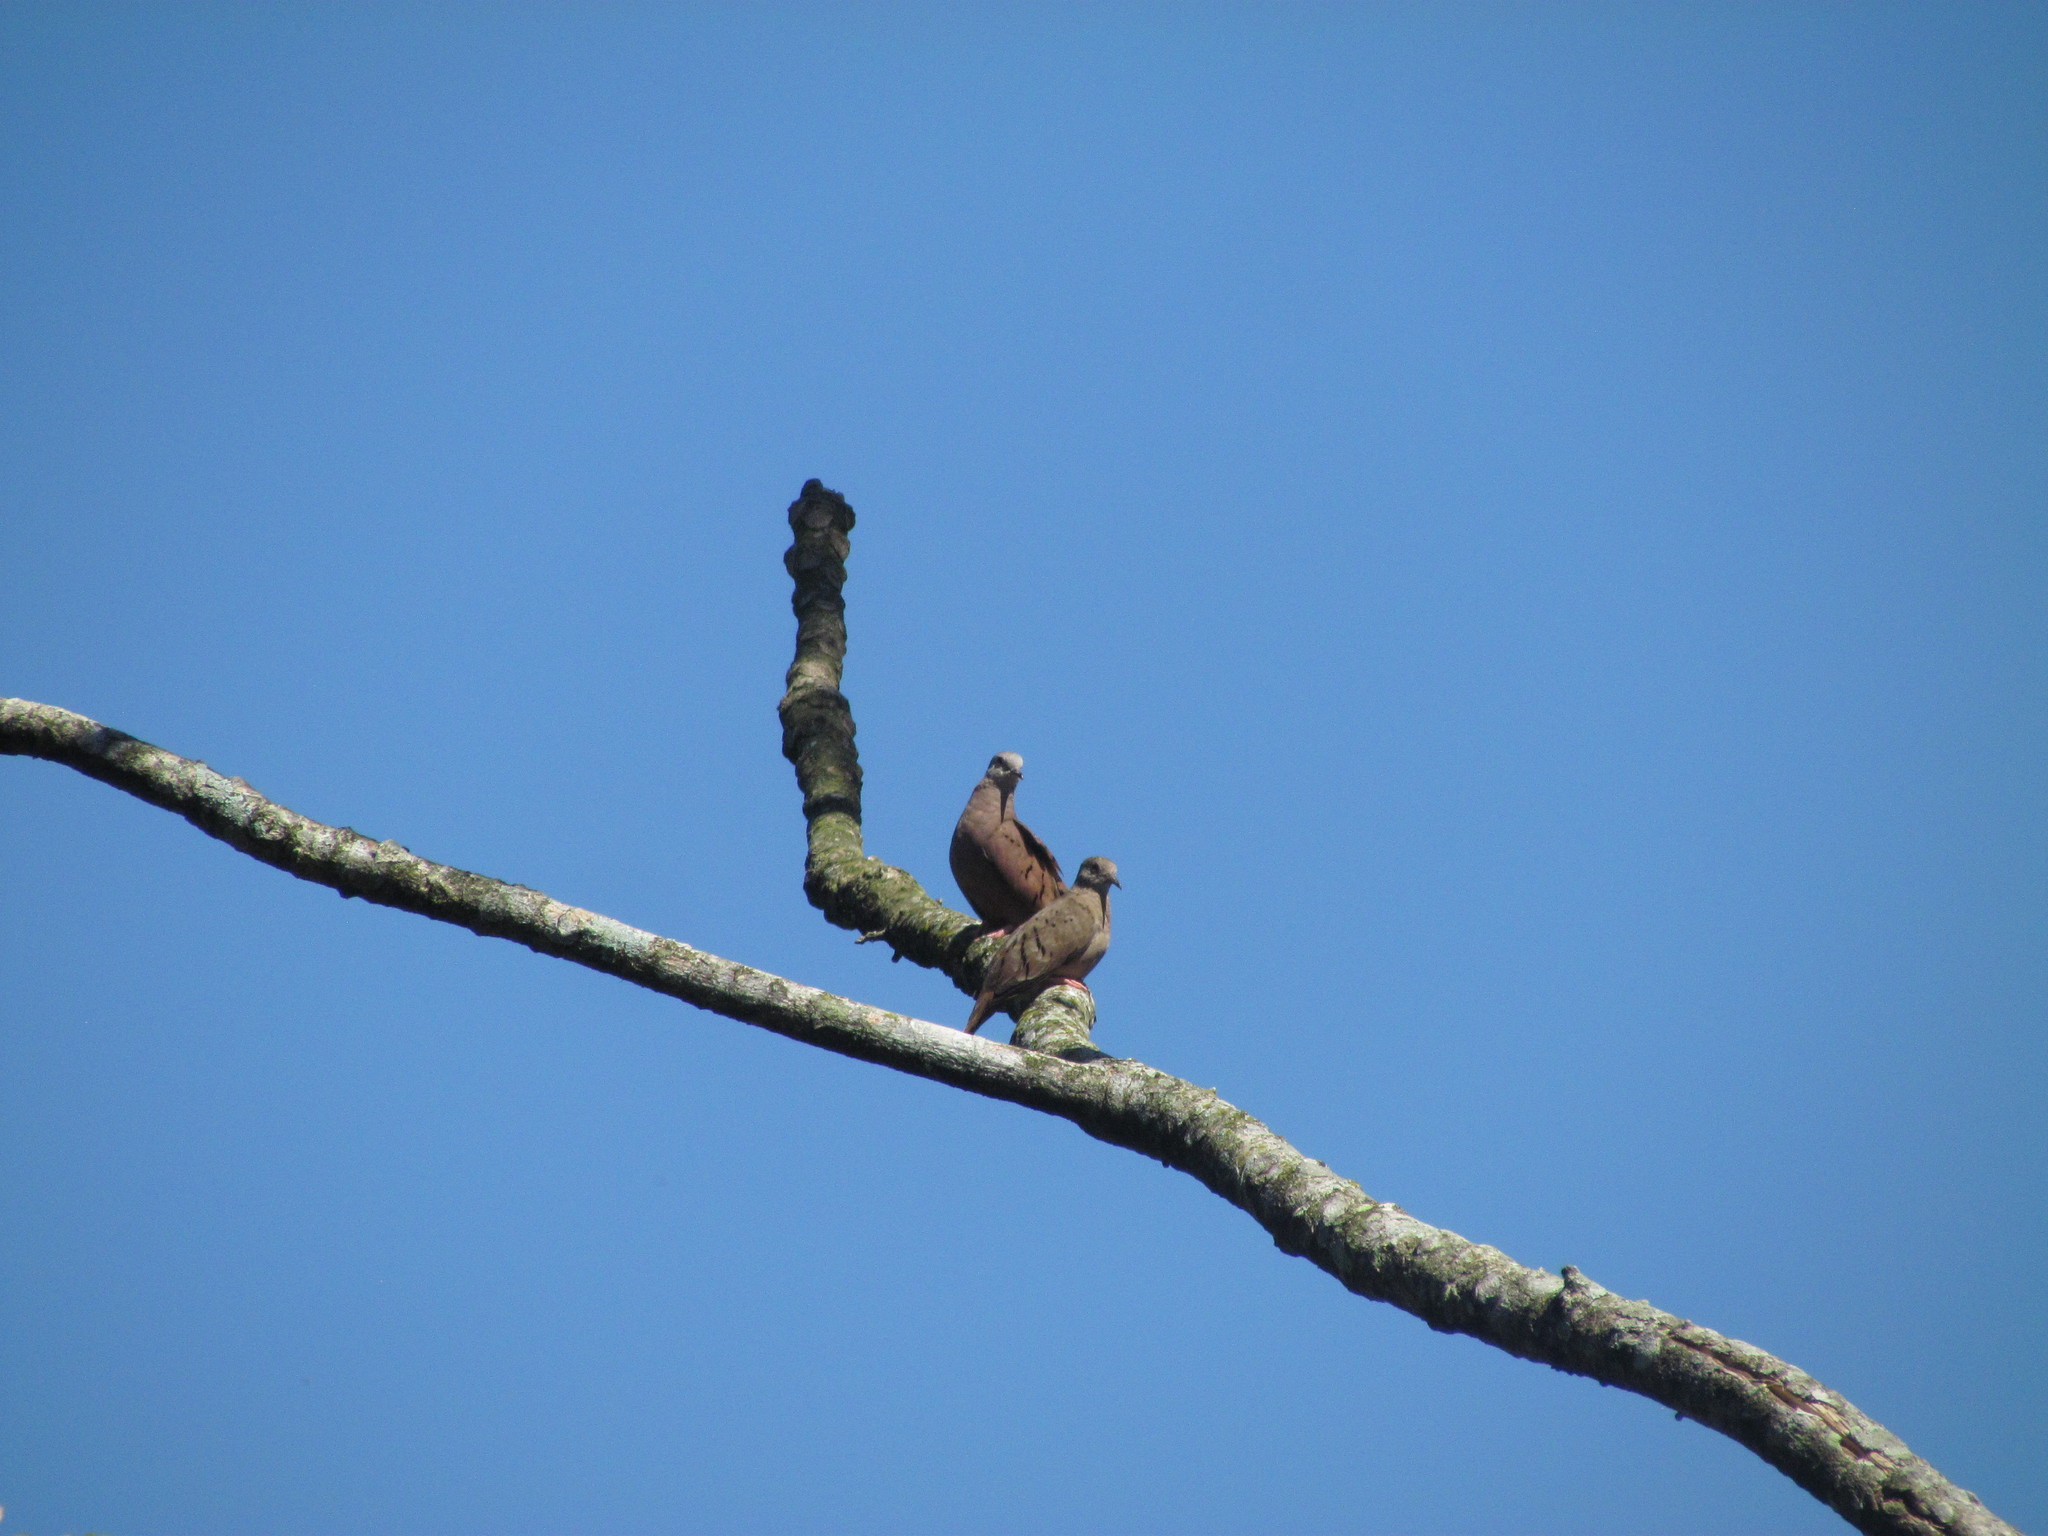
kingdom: Animalia
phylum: Chordata
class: Aves
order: Columbiformes
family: Columbidae
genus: Columbina
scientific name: Columbina talpacoti
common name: Ruddy ground dove
